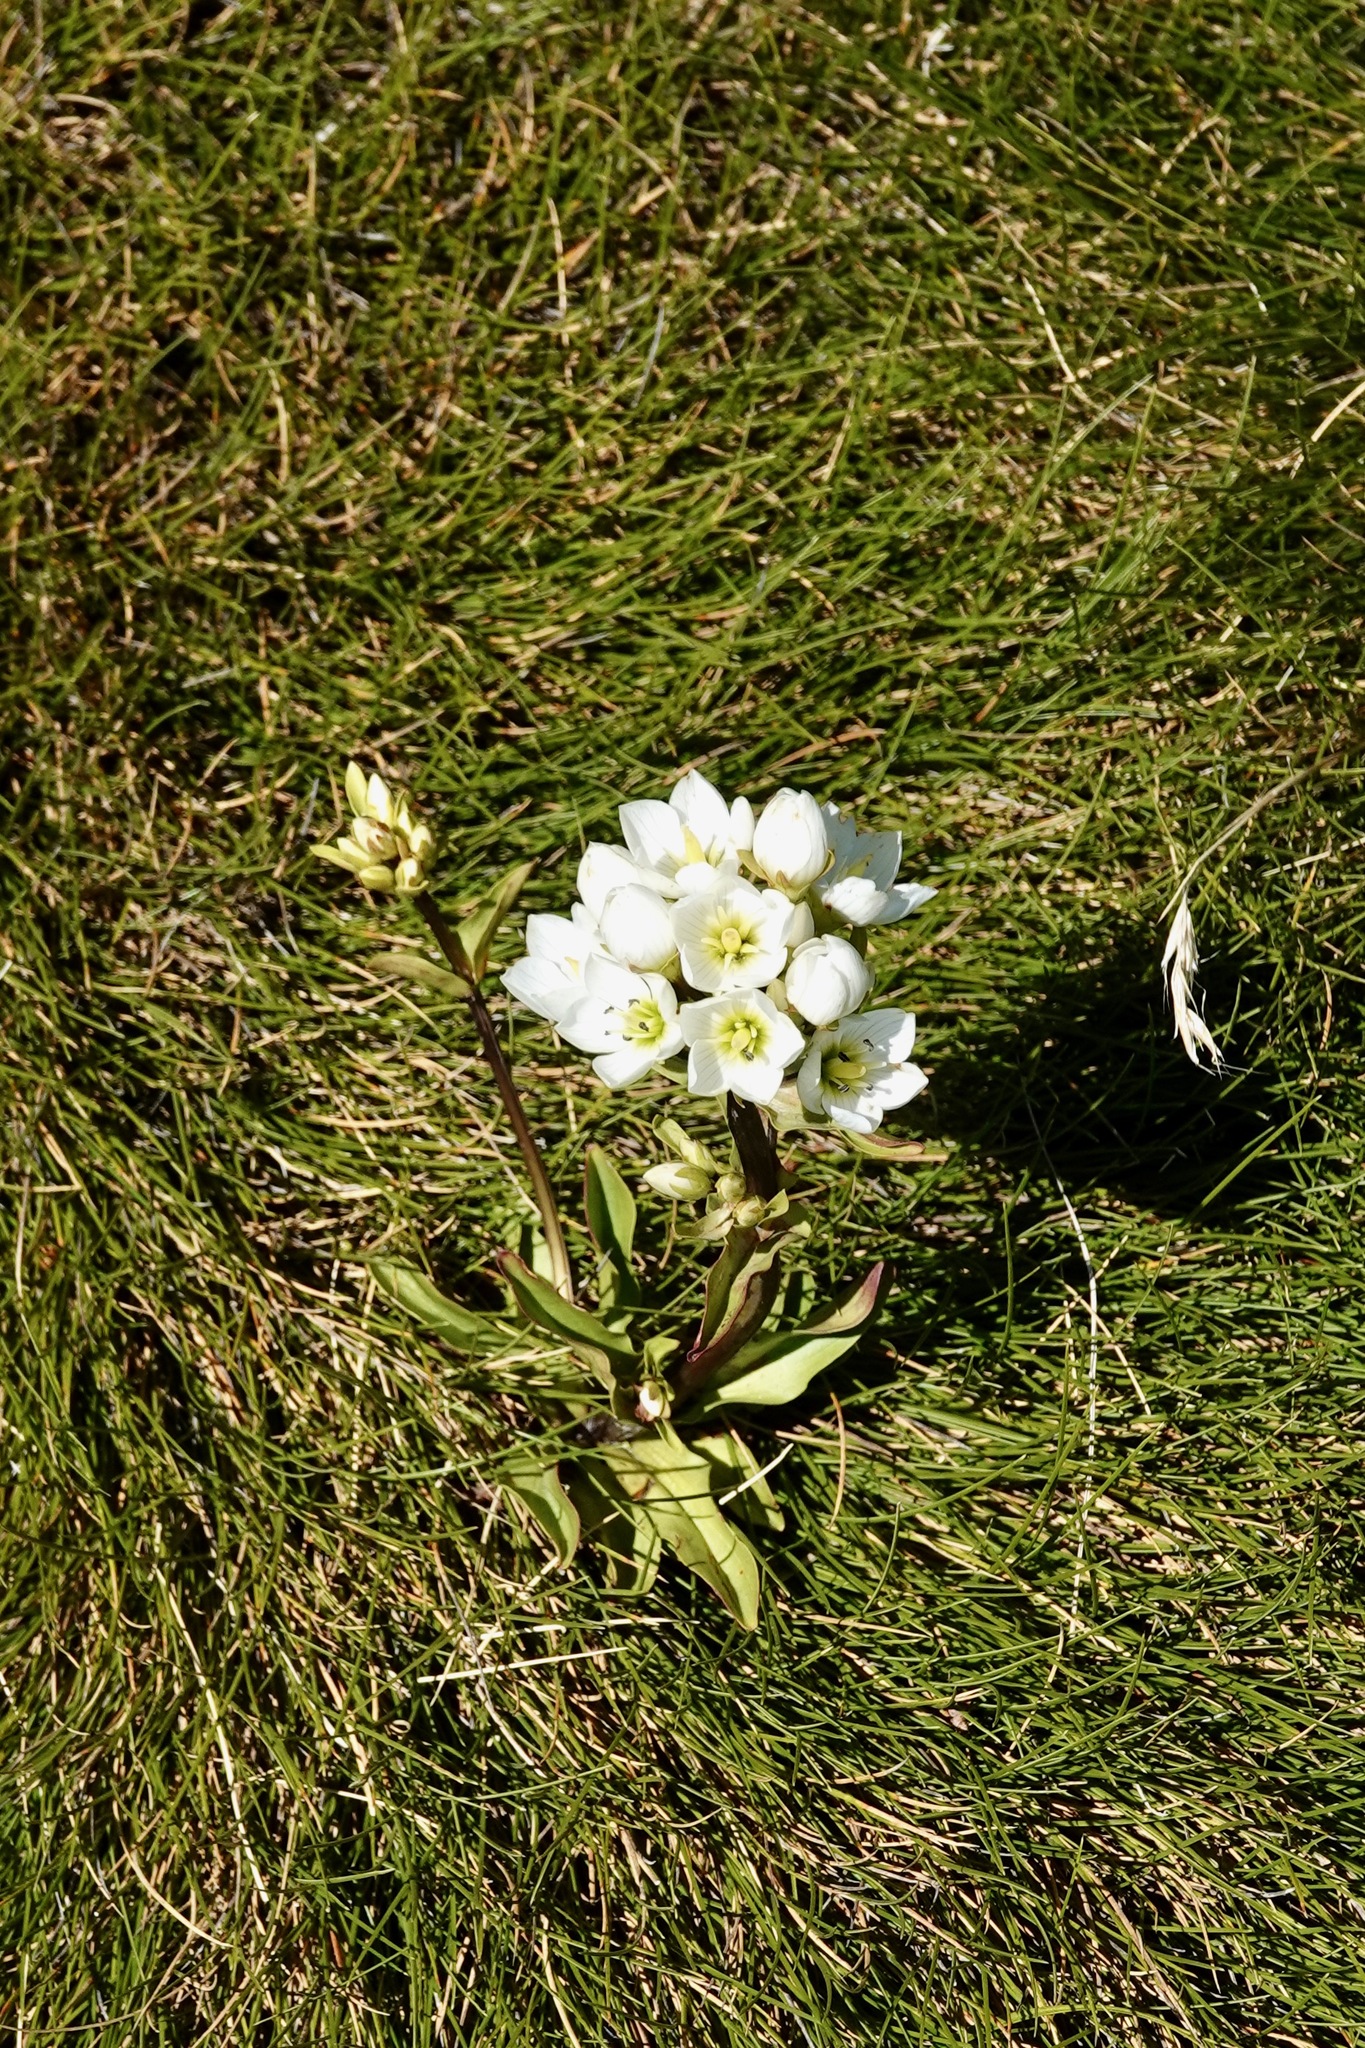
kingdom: Plantae
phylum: Tracheophyta
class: Magnoliopsida
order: Gentianales
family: Gentianaceae
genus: Gentianella
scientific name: Gentianella corymbifera
